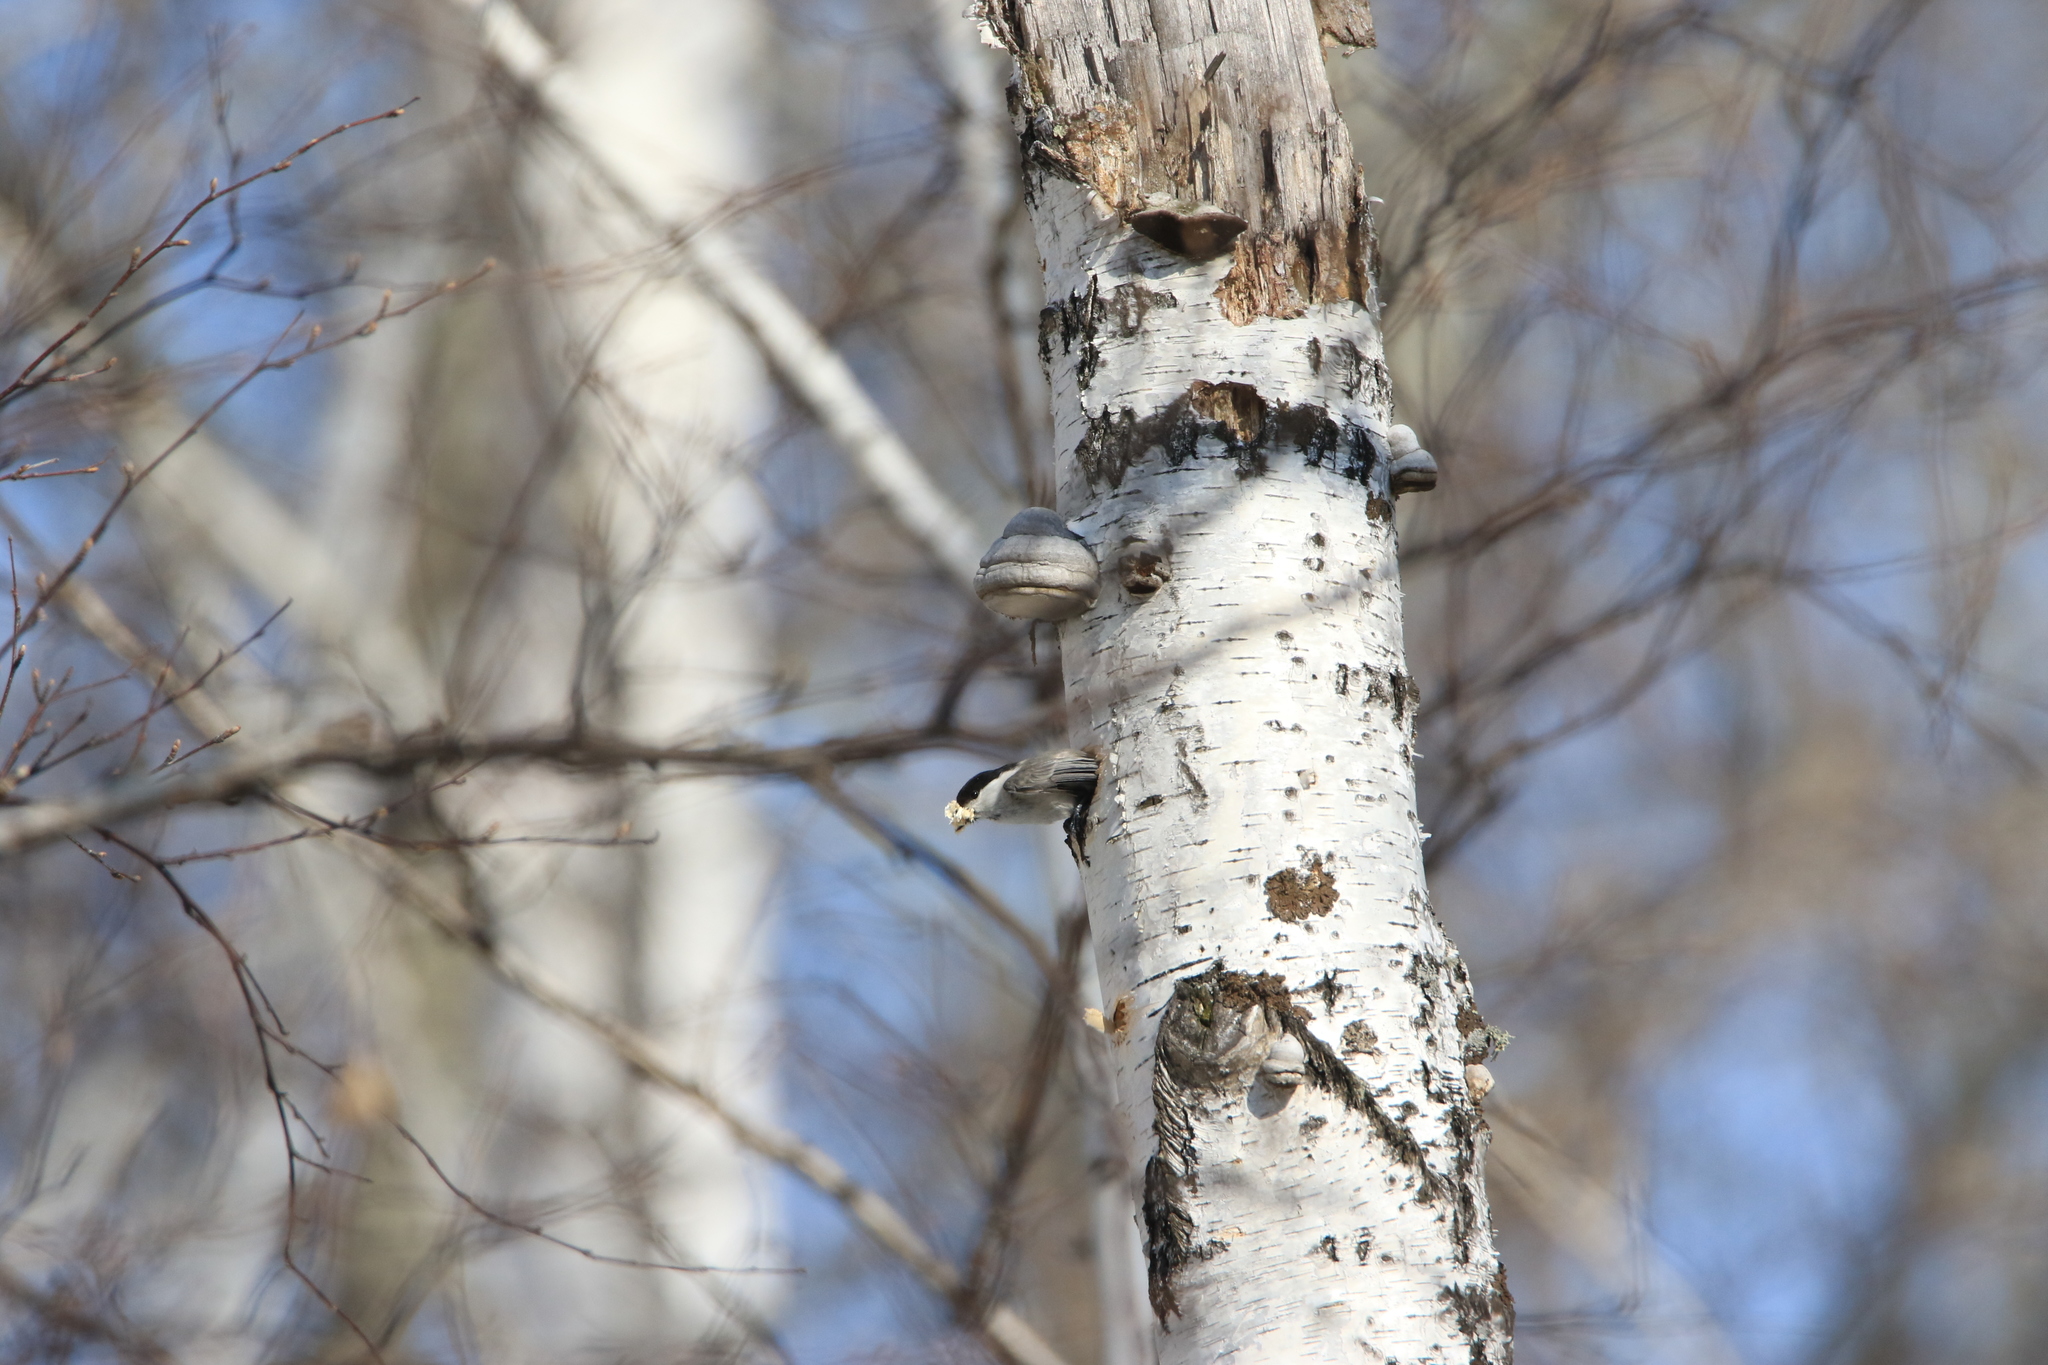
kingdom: Animalia
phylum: Chordata
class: Aves
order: Passeriformes
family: Paridae
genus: Poecile
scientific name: Poecile montanus
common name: Willow tit
